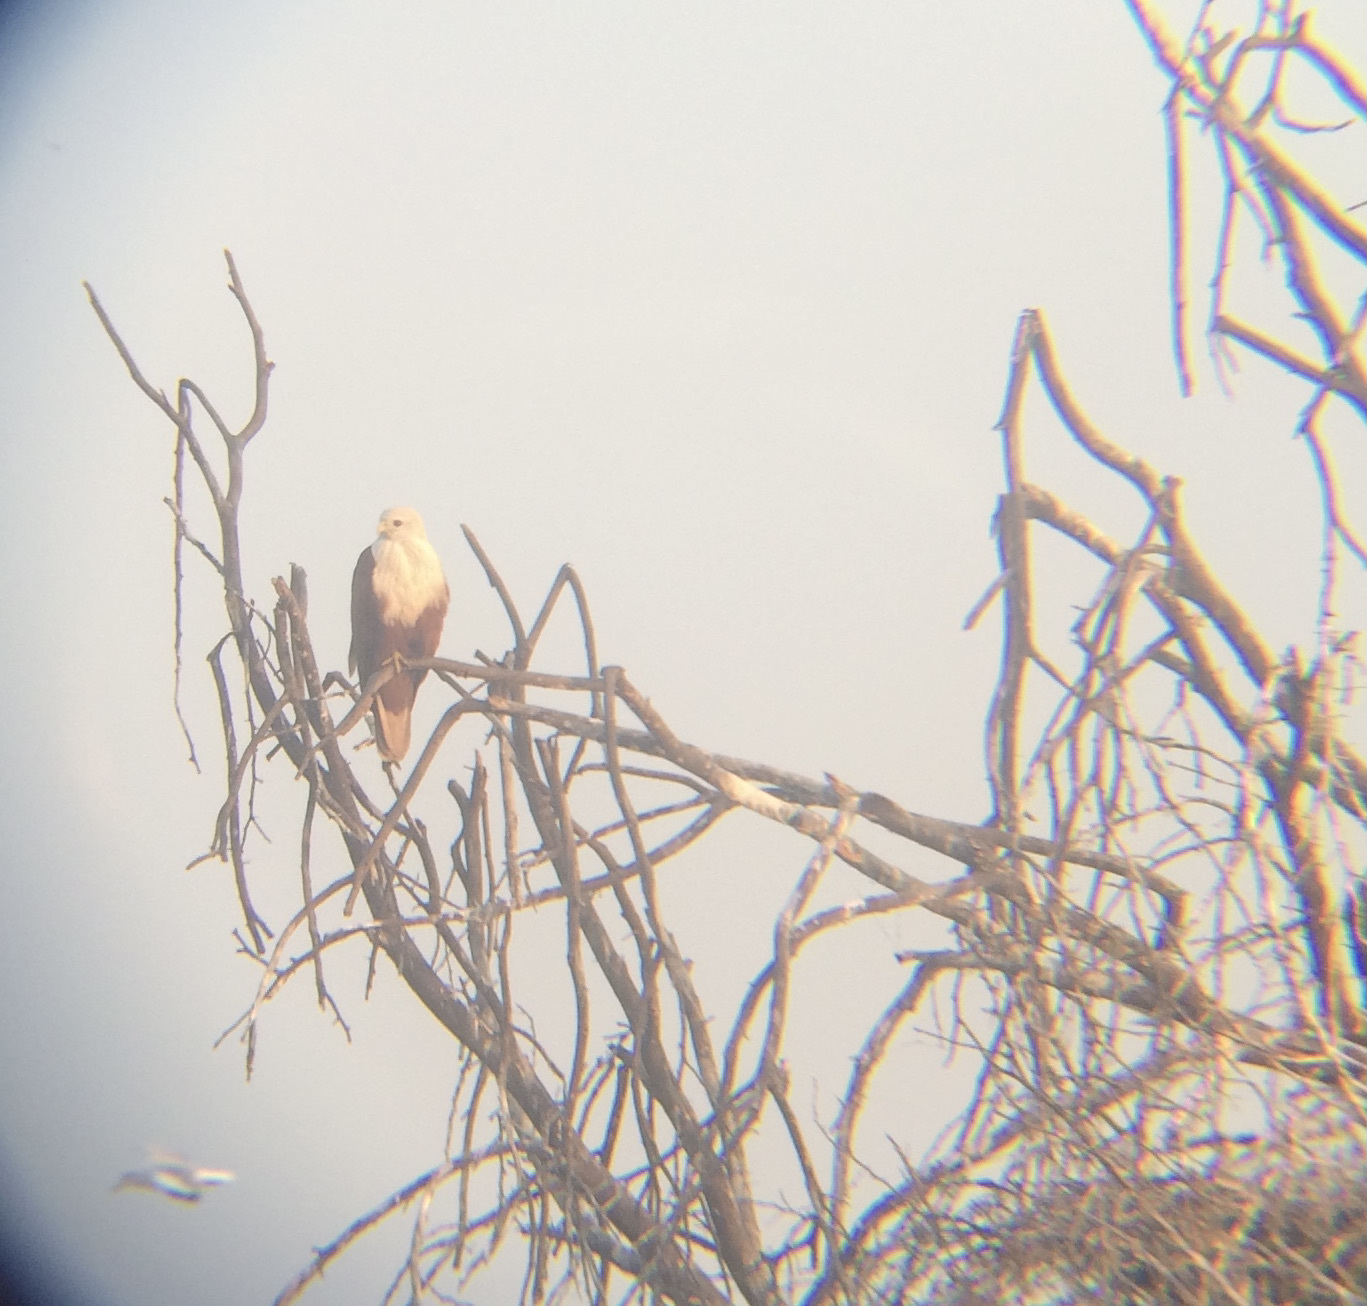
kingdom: Animalia
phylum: Chordata
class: Aves
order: Accipitriformes
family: Accipitridae
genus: Haliastur
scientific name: Haliastur indus
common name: Brahminy kite
